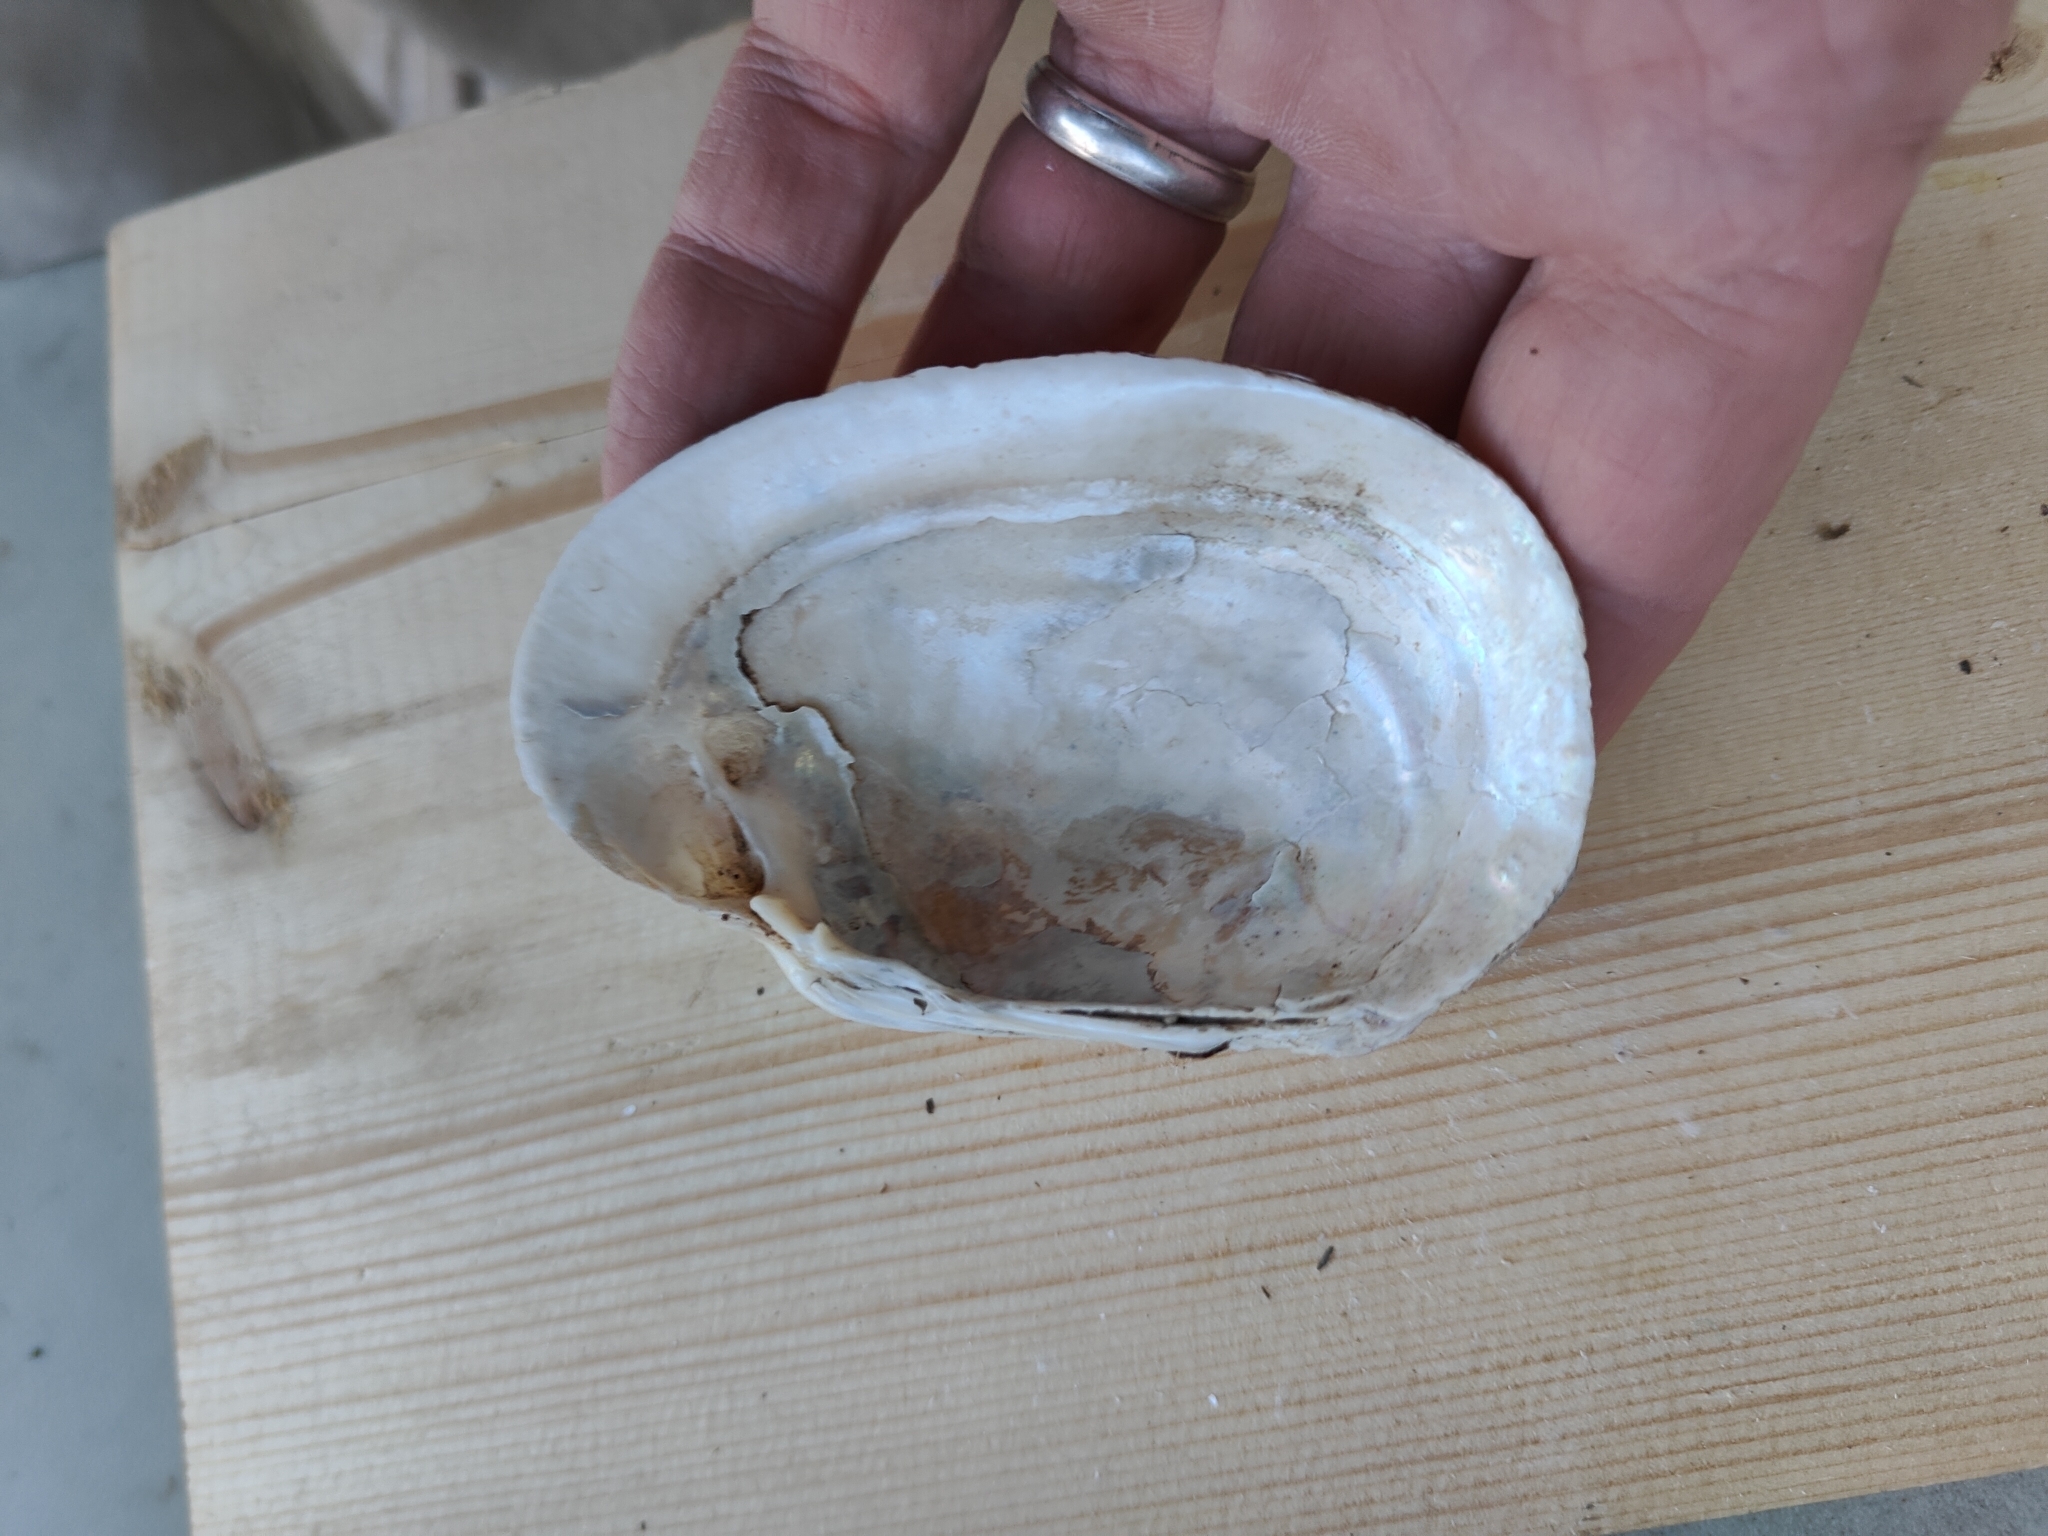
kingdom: Animalia
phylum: Mollusca
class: Bivalvia
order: Unionida
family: Unionidae
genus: Lampsilis
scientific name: Lampsilis siliquoidea
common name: Fatmucket
